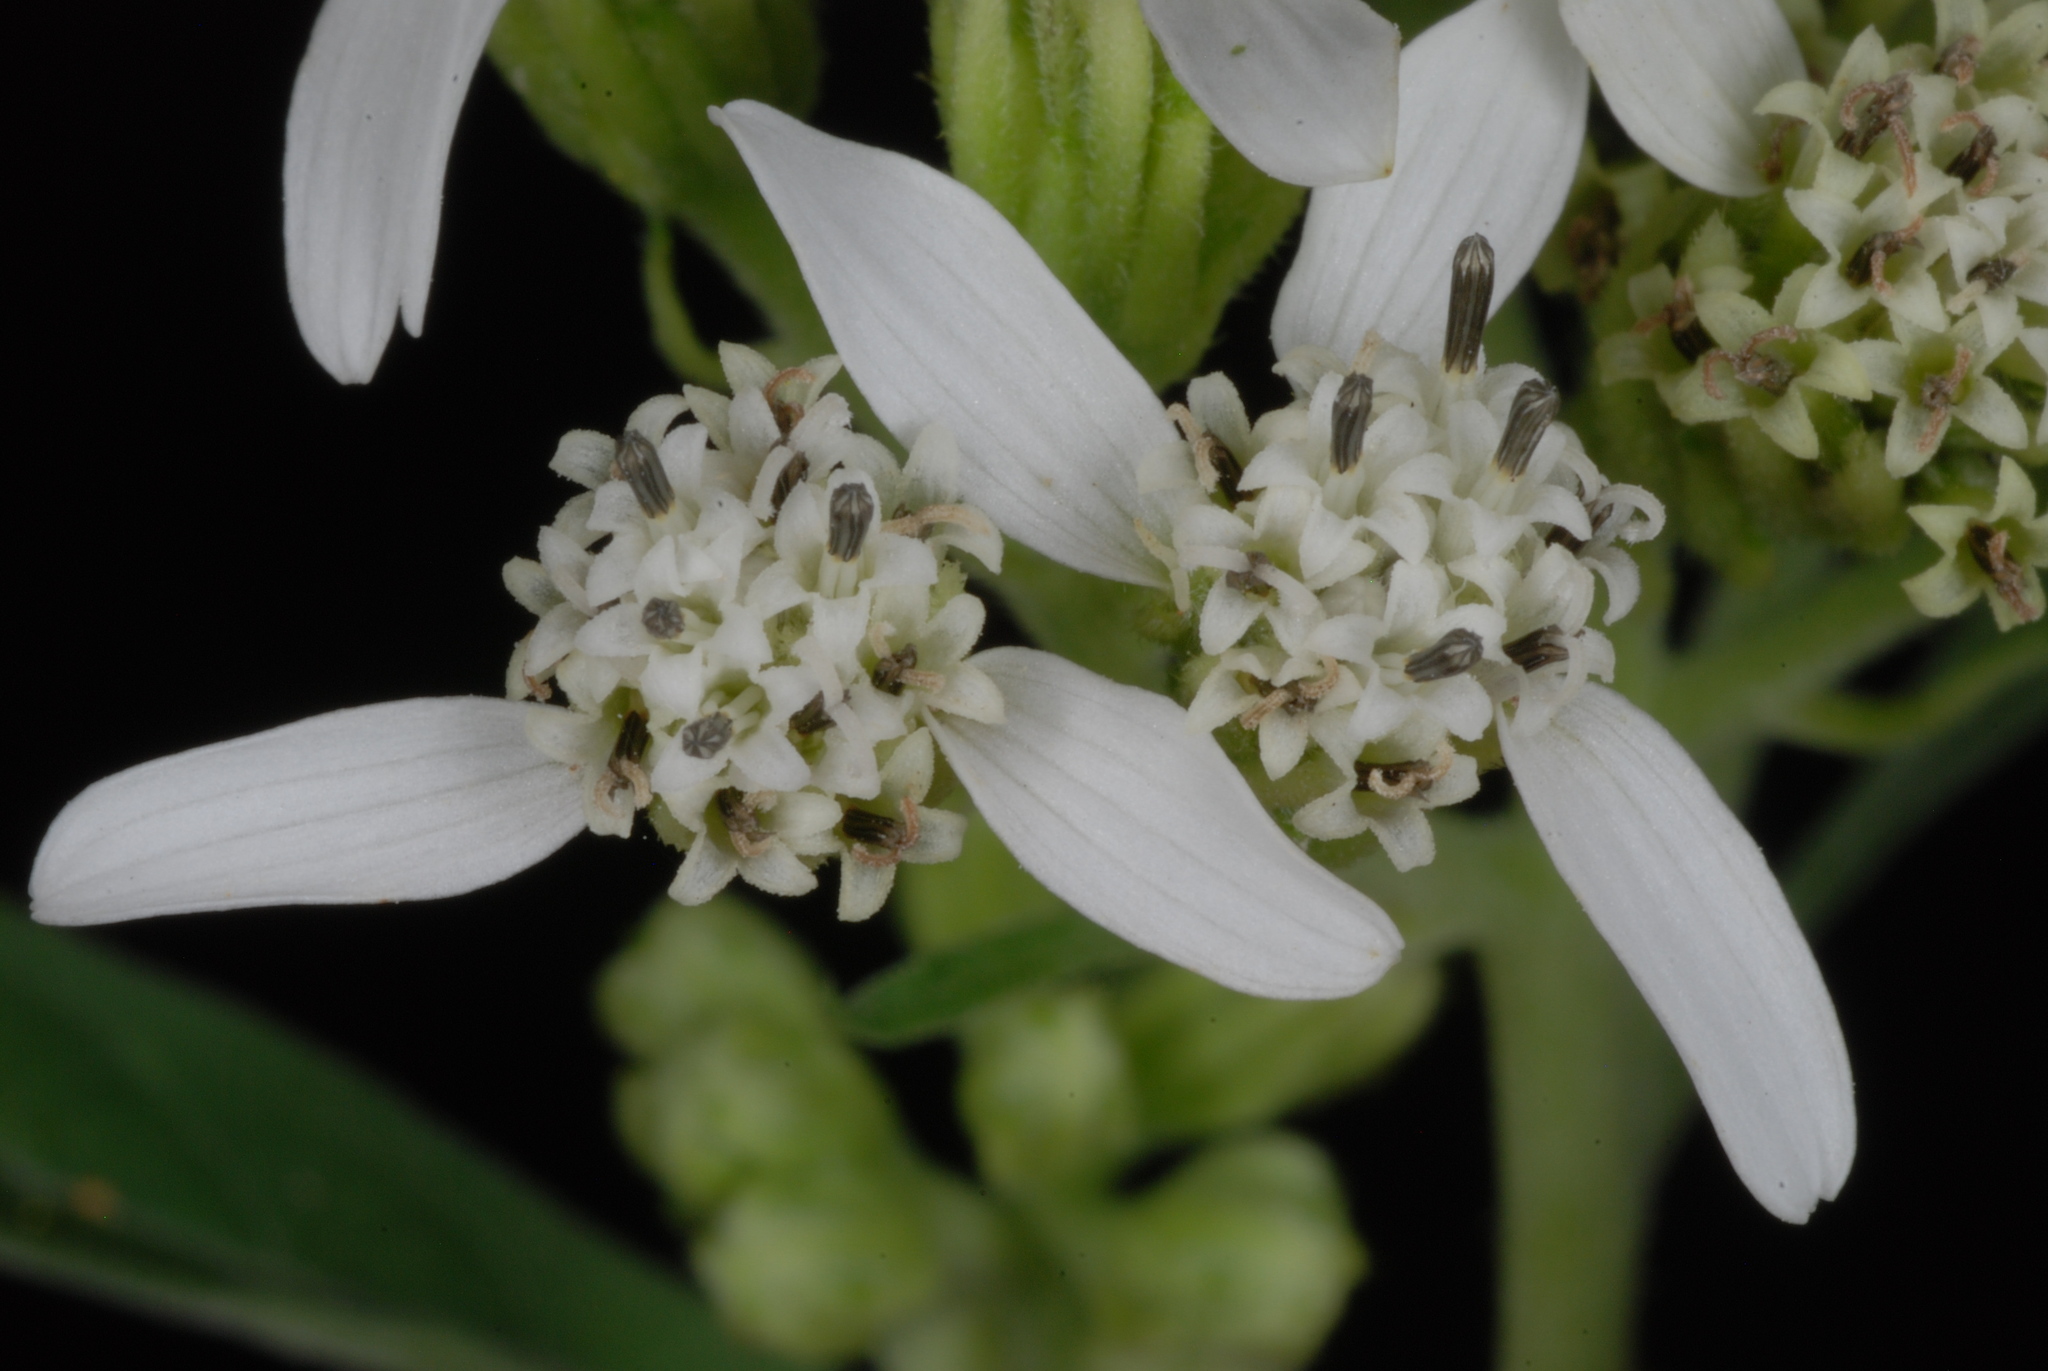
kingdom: Plantae
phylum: Tracheophyta
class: Magnoliopsida
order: Asterales
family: Asteraceae
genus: Verbesina
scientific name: Verbesina virginica
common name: Frostweed
